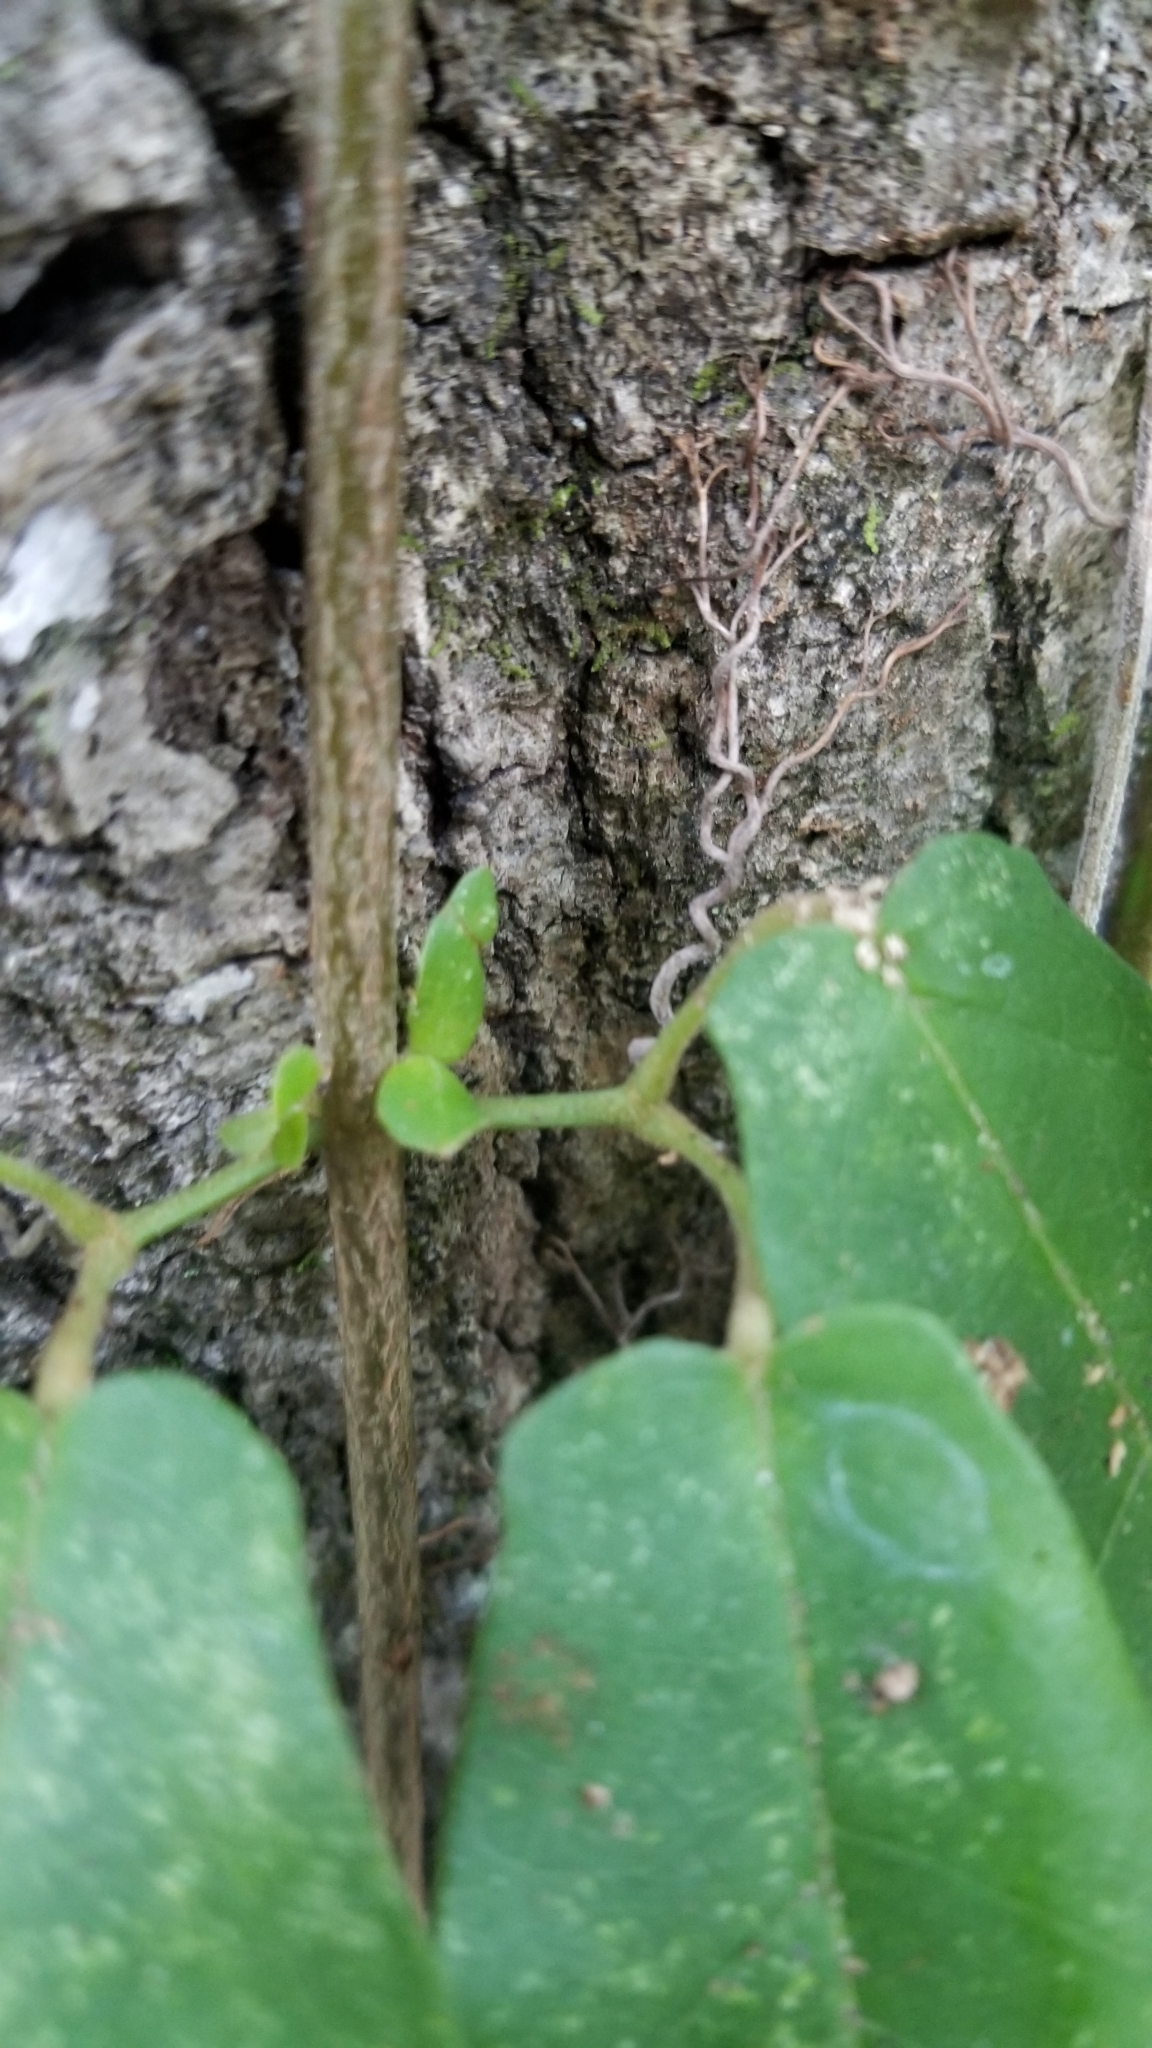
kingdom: Plantae
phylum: Tracheophyta
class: Magnoliopsida
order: Lamiales
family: Bignoniaceae
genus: Bignonia
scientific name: Bignonia capreolata
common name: Crossvine
